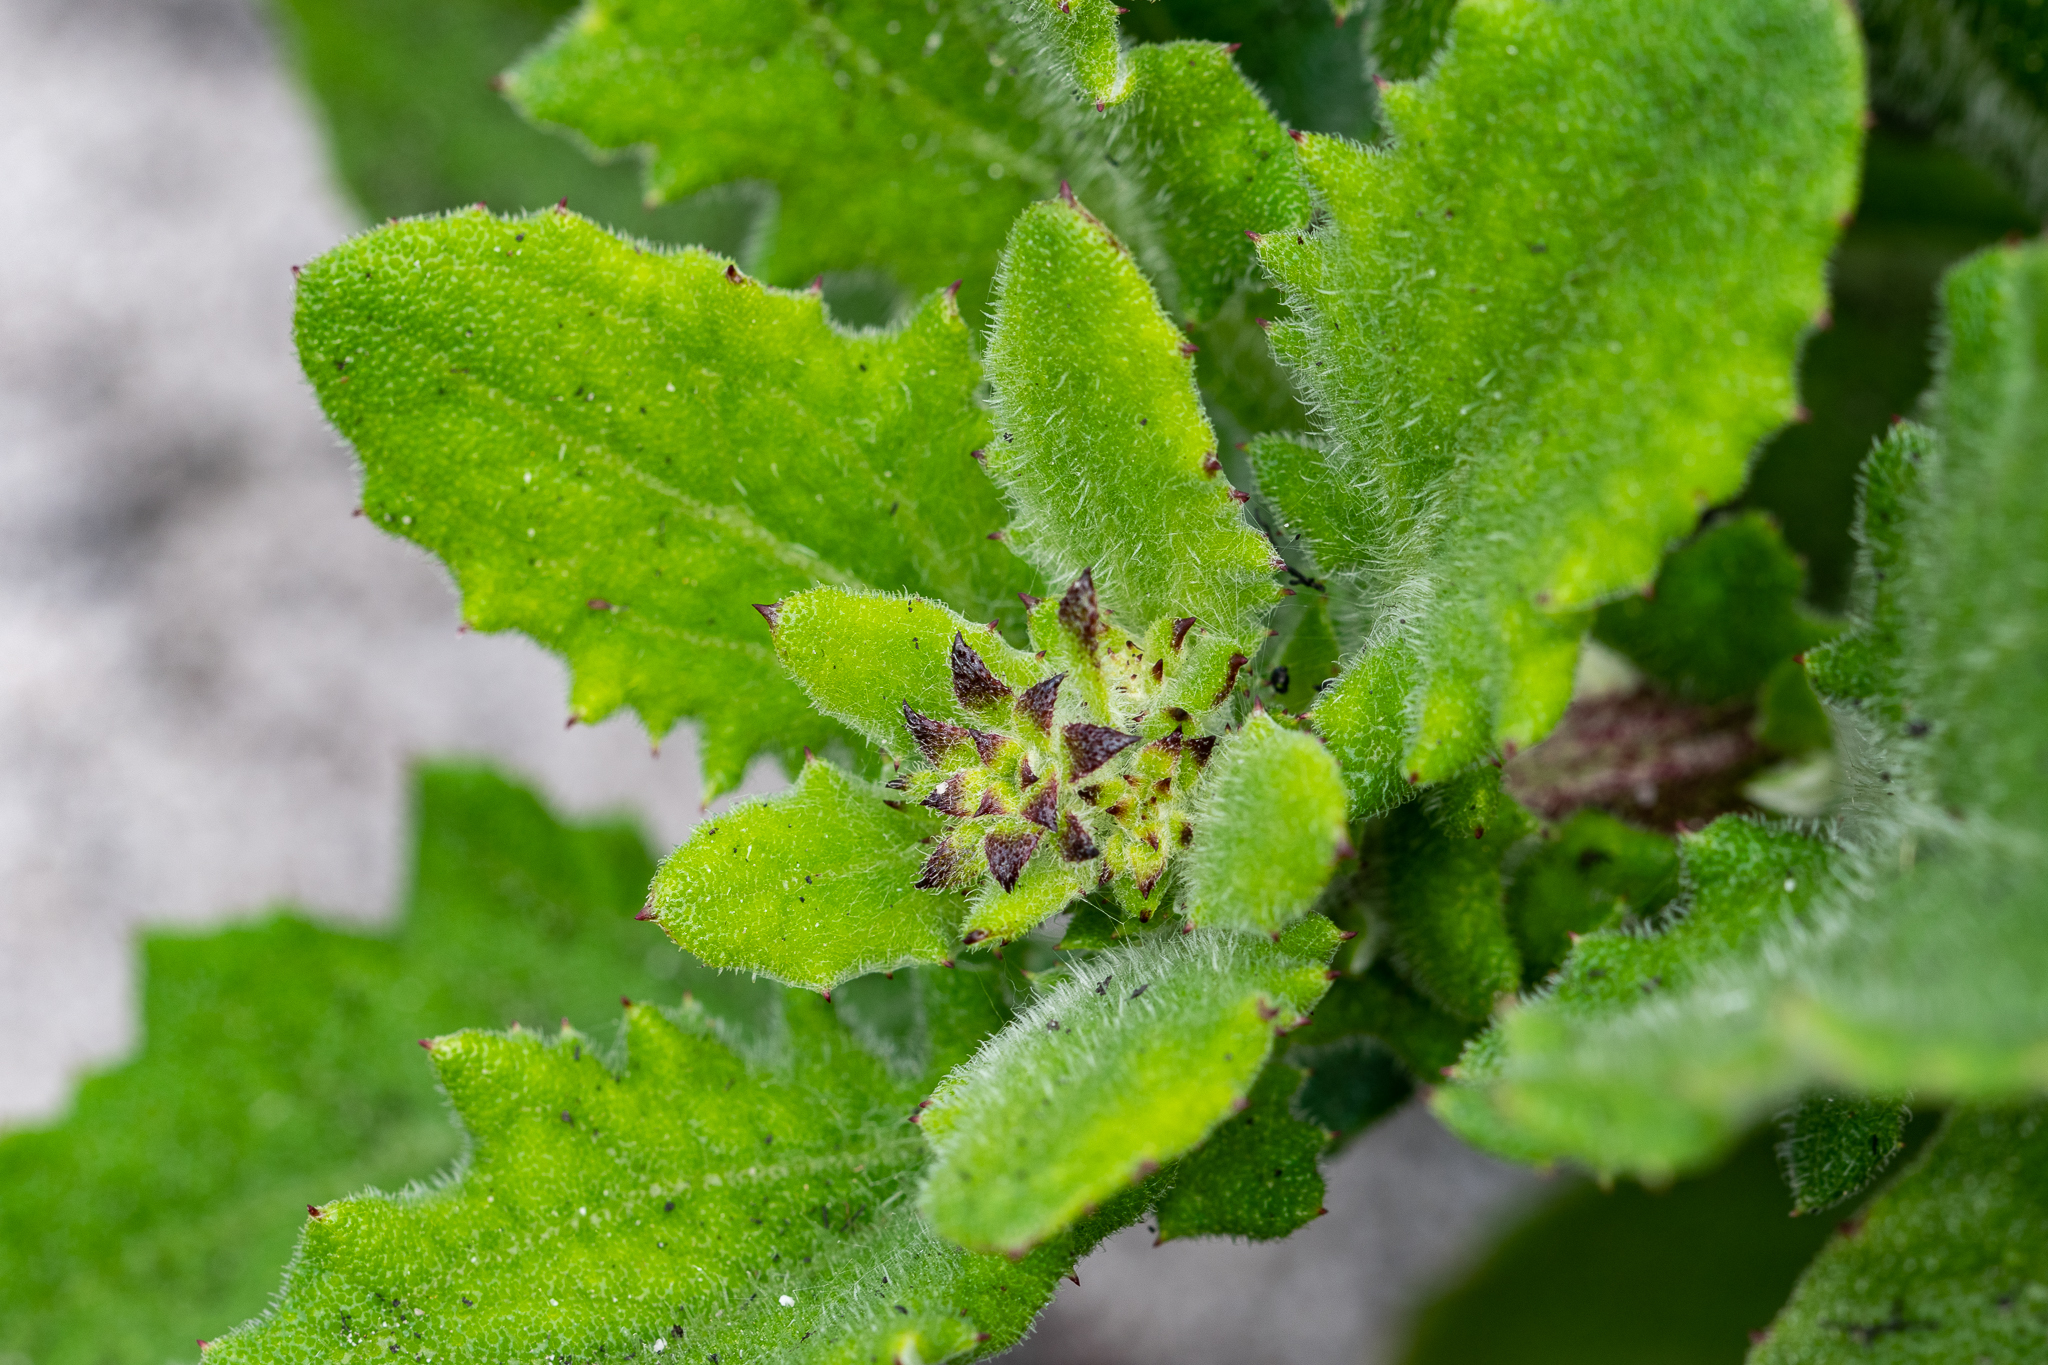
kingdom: Plantae
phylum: Tracheophyta
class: Magnoliopsida
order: Asterales
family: Asteraceae
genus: Arctotis
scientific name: Arctotis scabra
